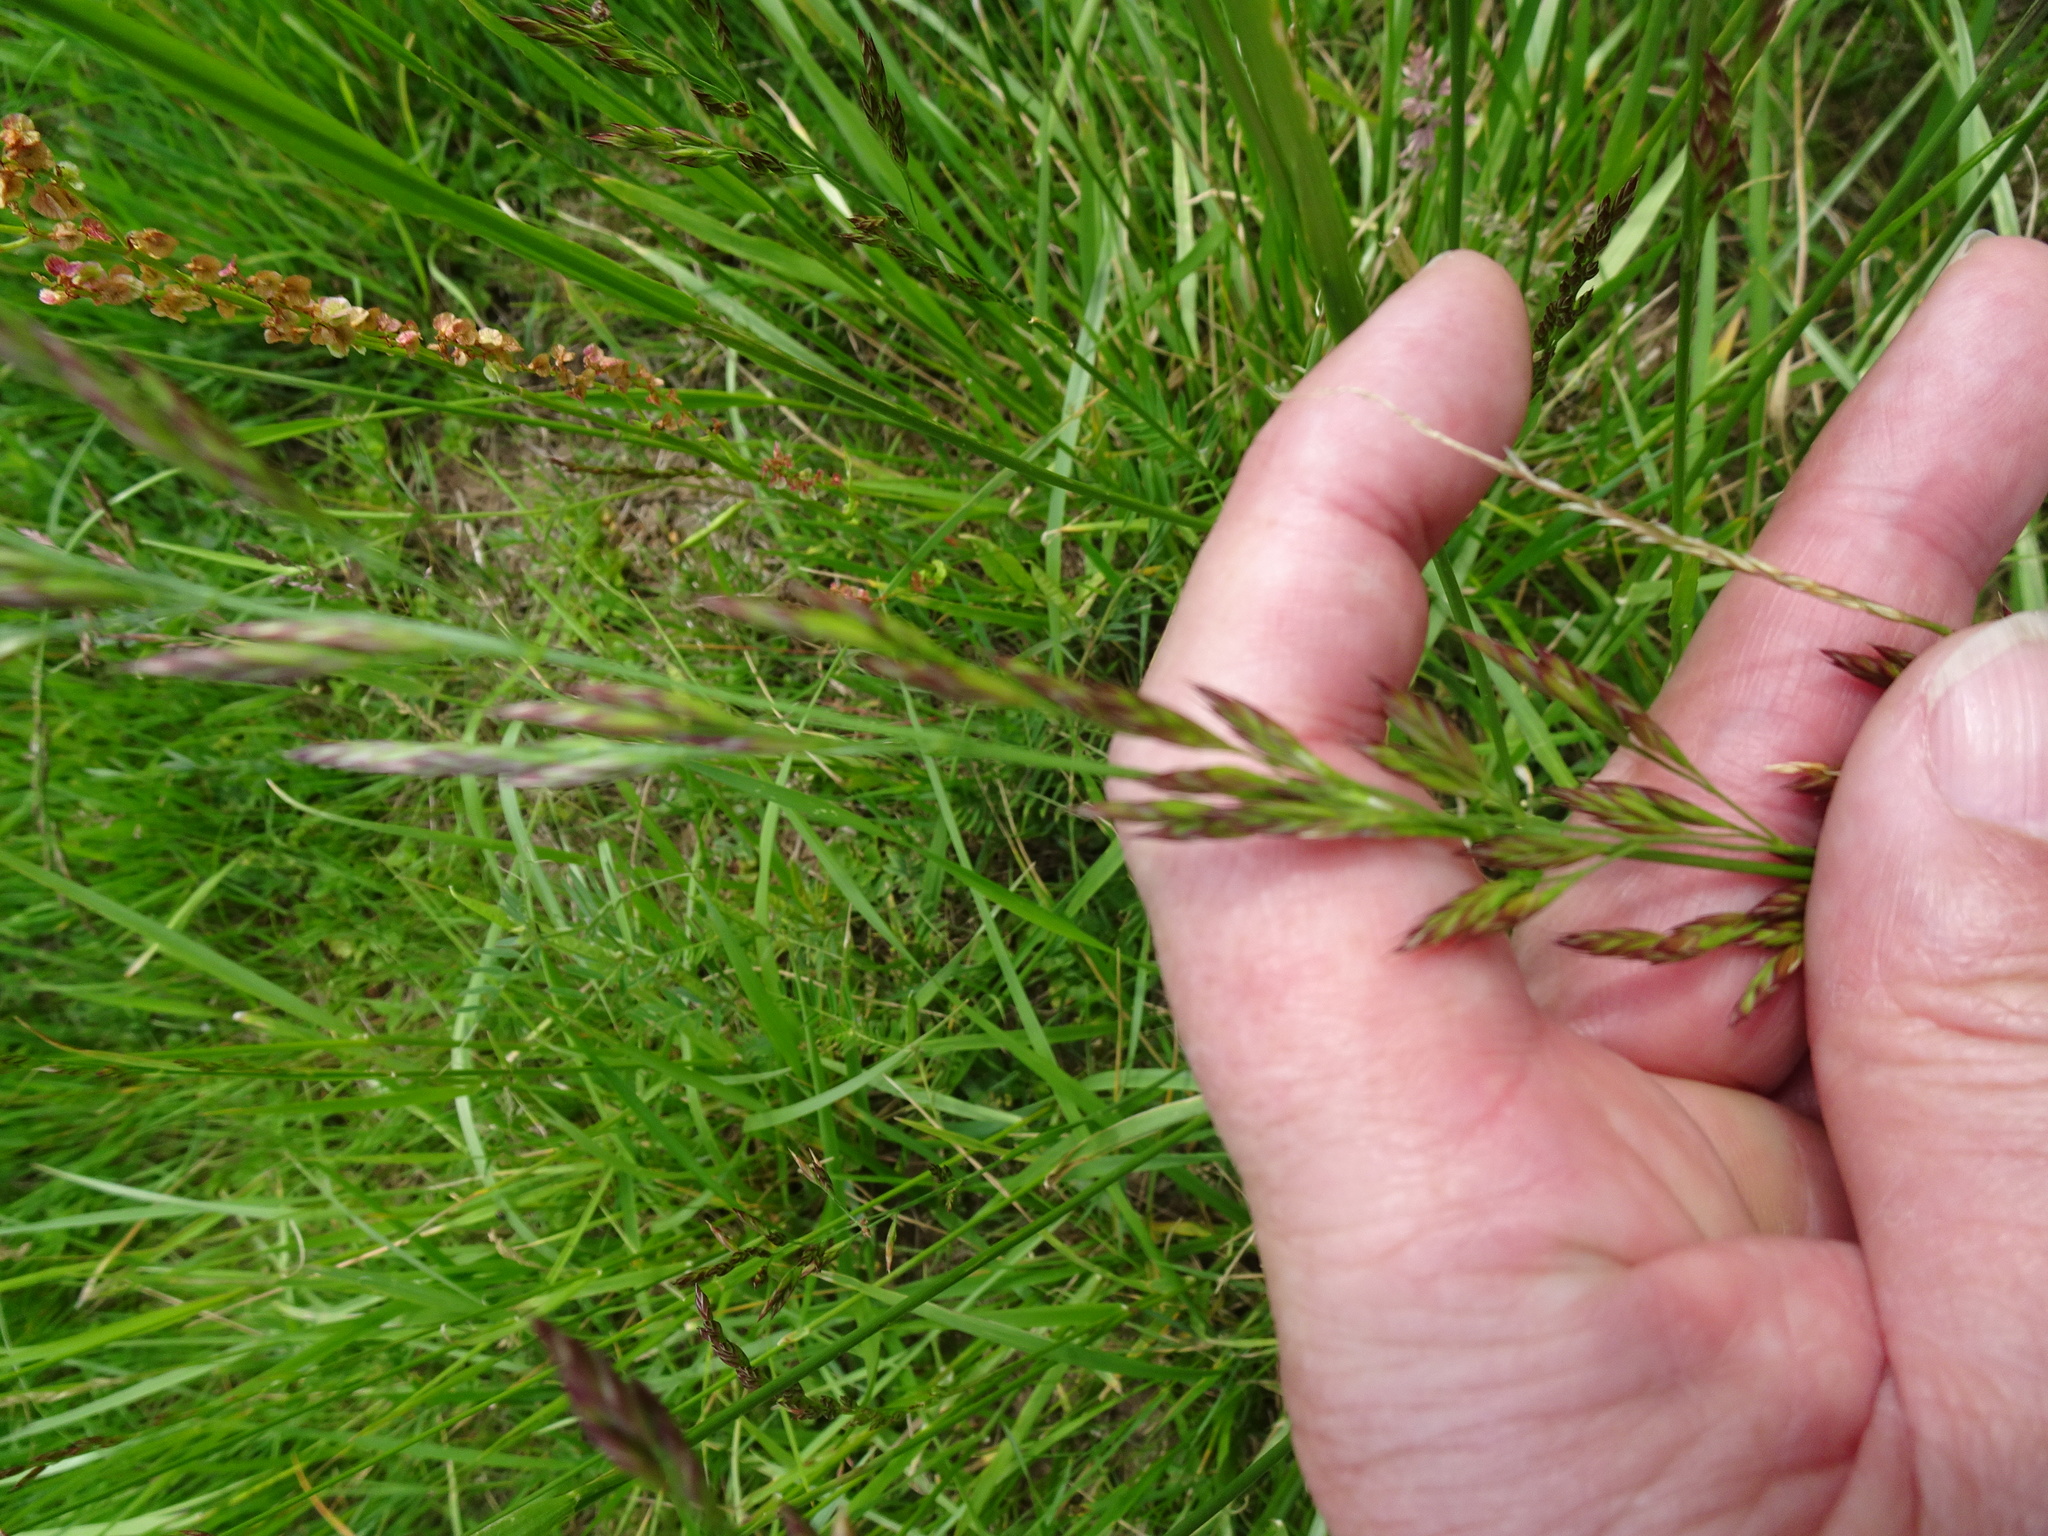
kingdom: Plantae
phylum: Tracheophyta
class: Liliopsida
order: Poales
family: Poaceae
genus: Lolium
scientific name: Lolium arundinaceum
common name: Reed fescue
